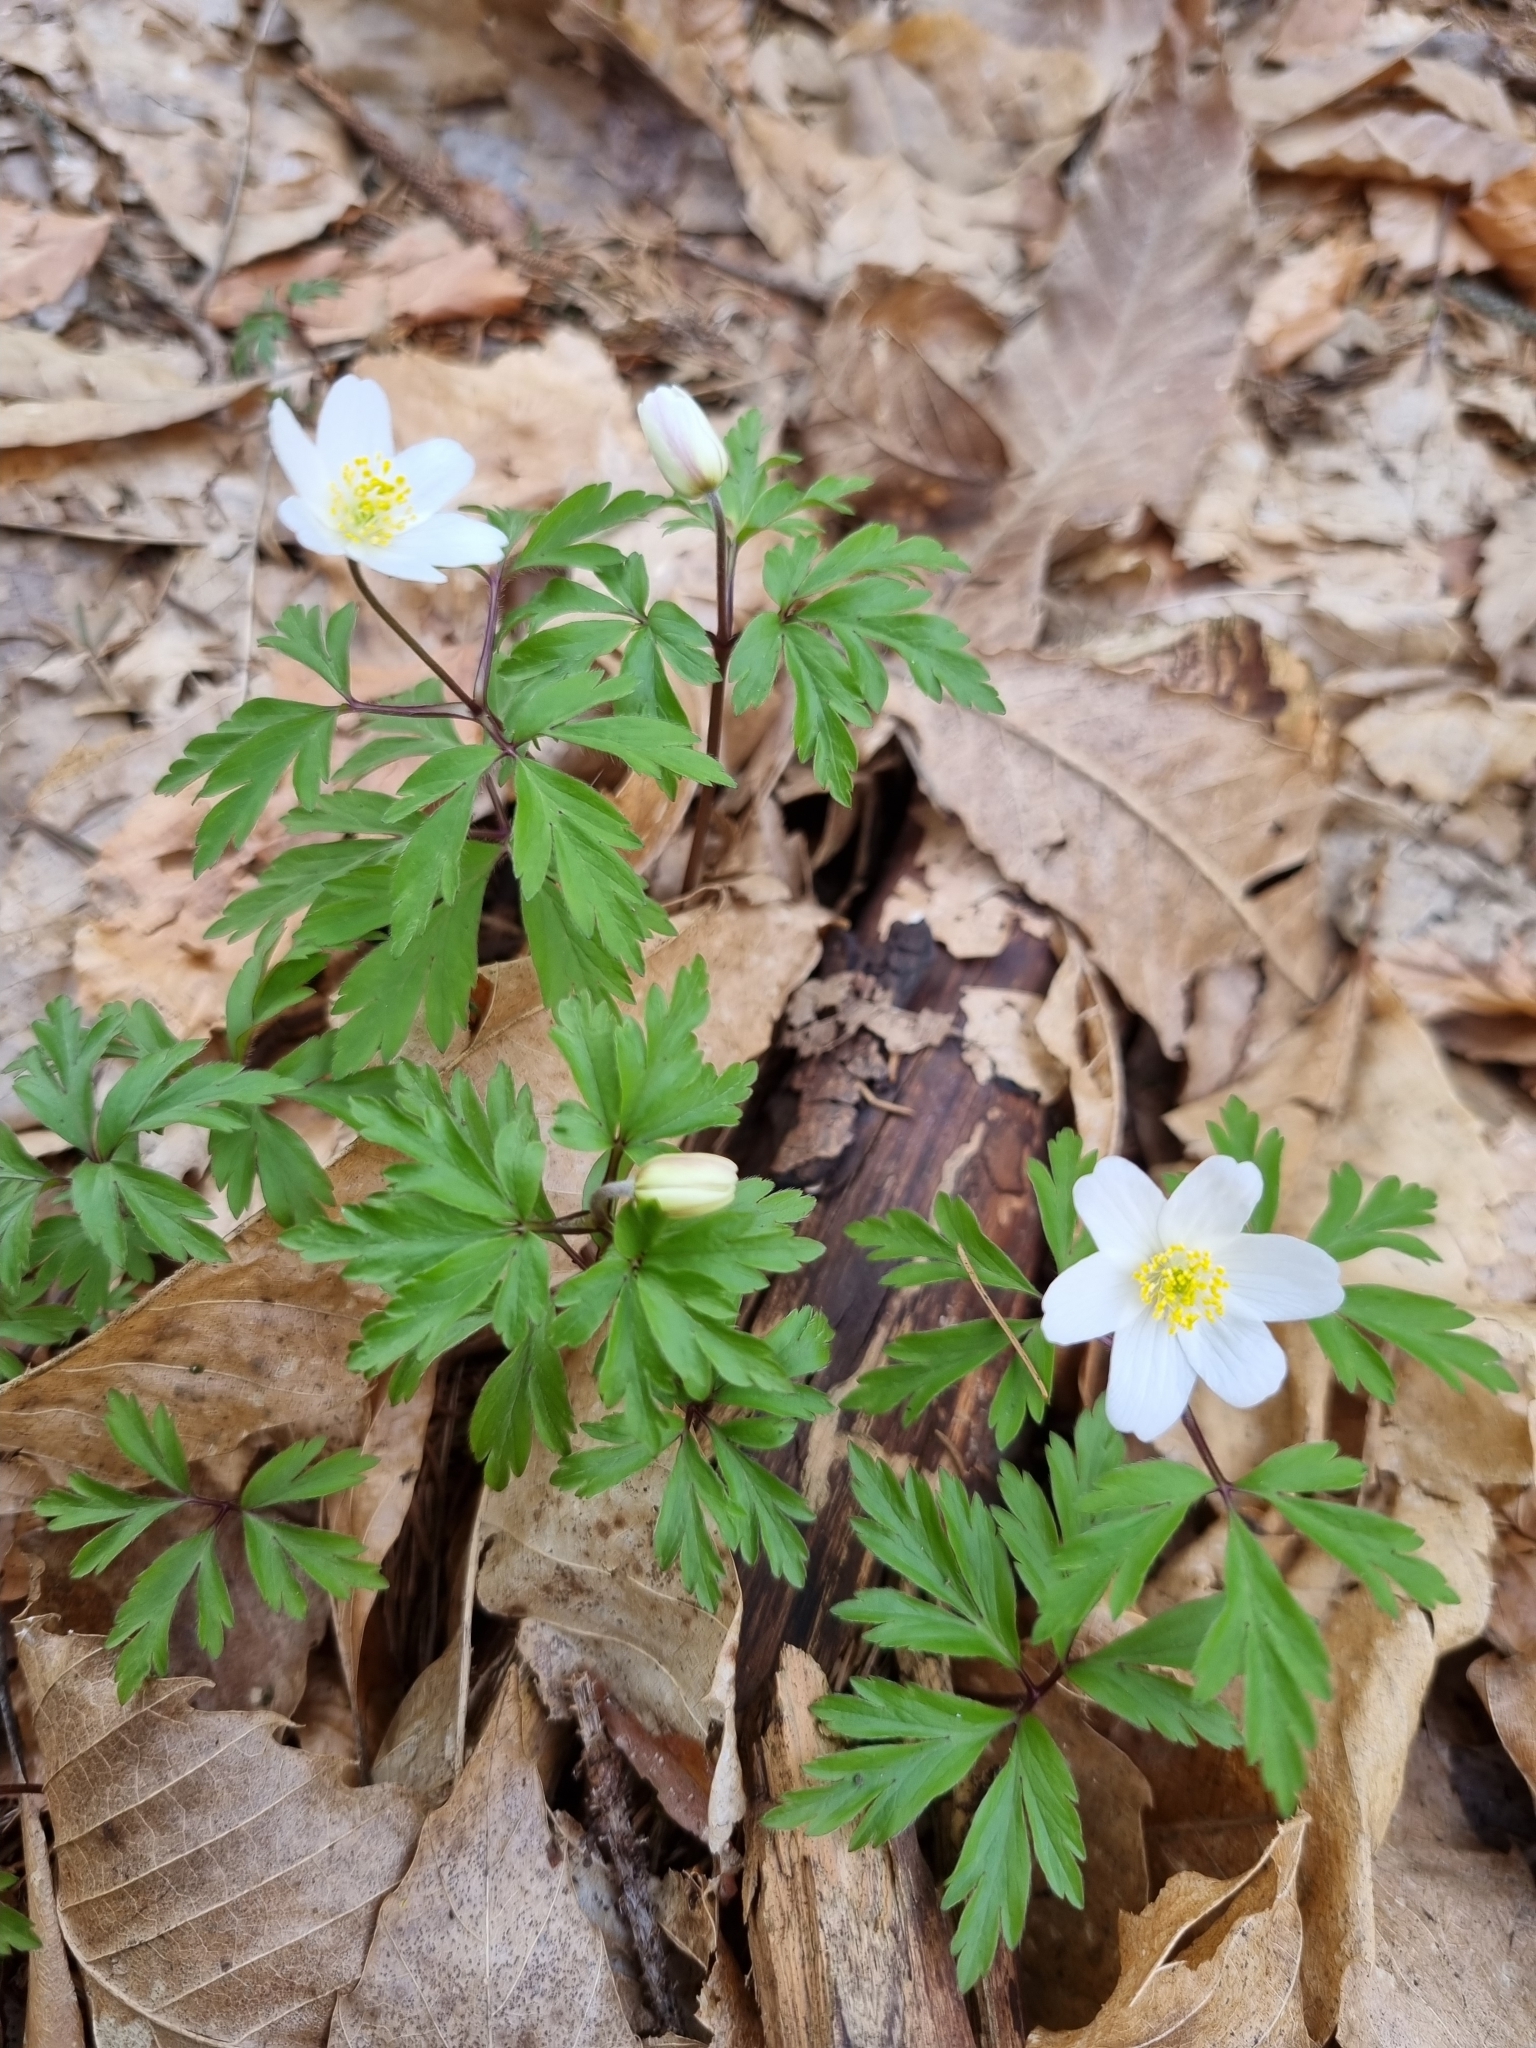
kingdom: Plantae
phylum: Tracheophyta
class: Magnoliopsida
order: Ranunculales
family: Ranunculaceae
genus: Anemone
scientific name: Anemone nemorosa
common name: Wood anemone
